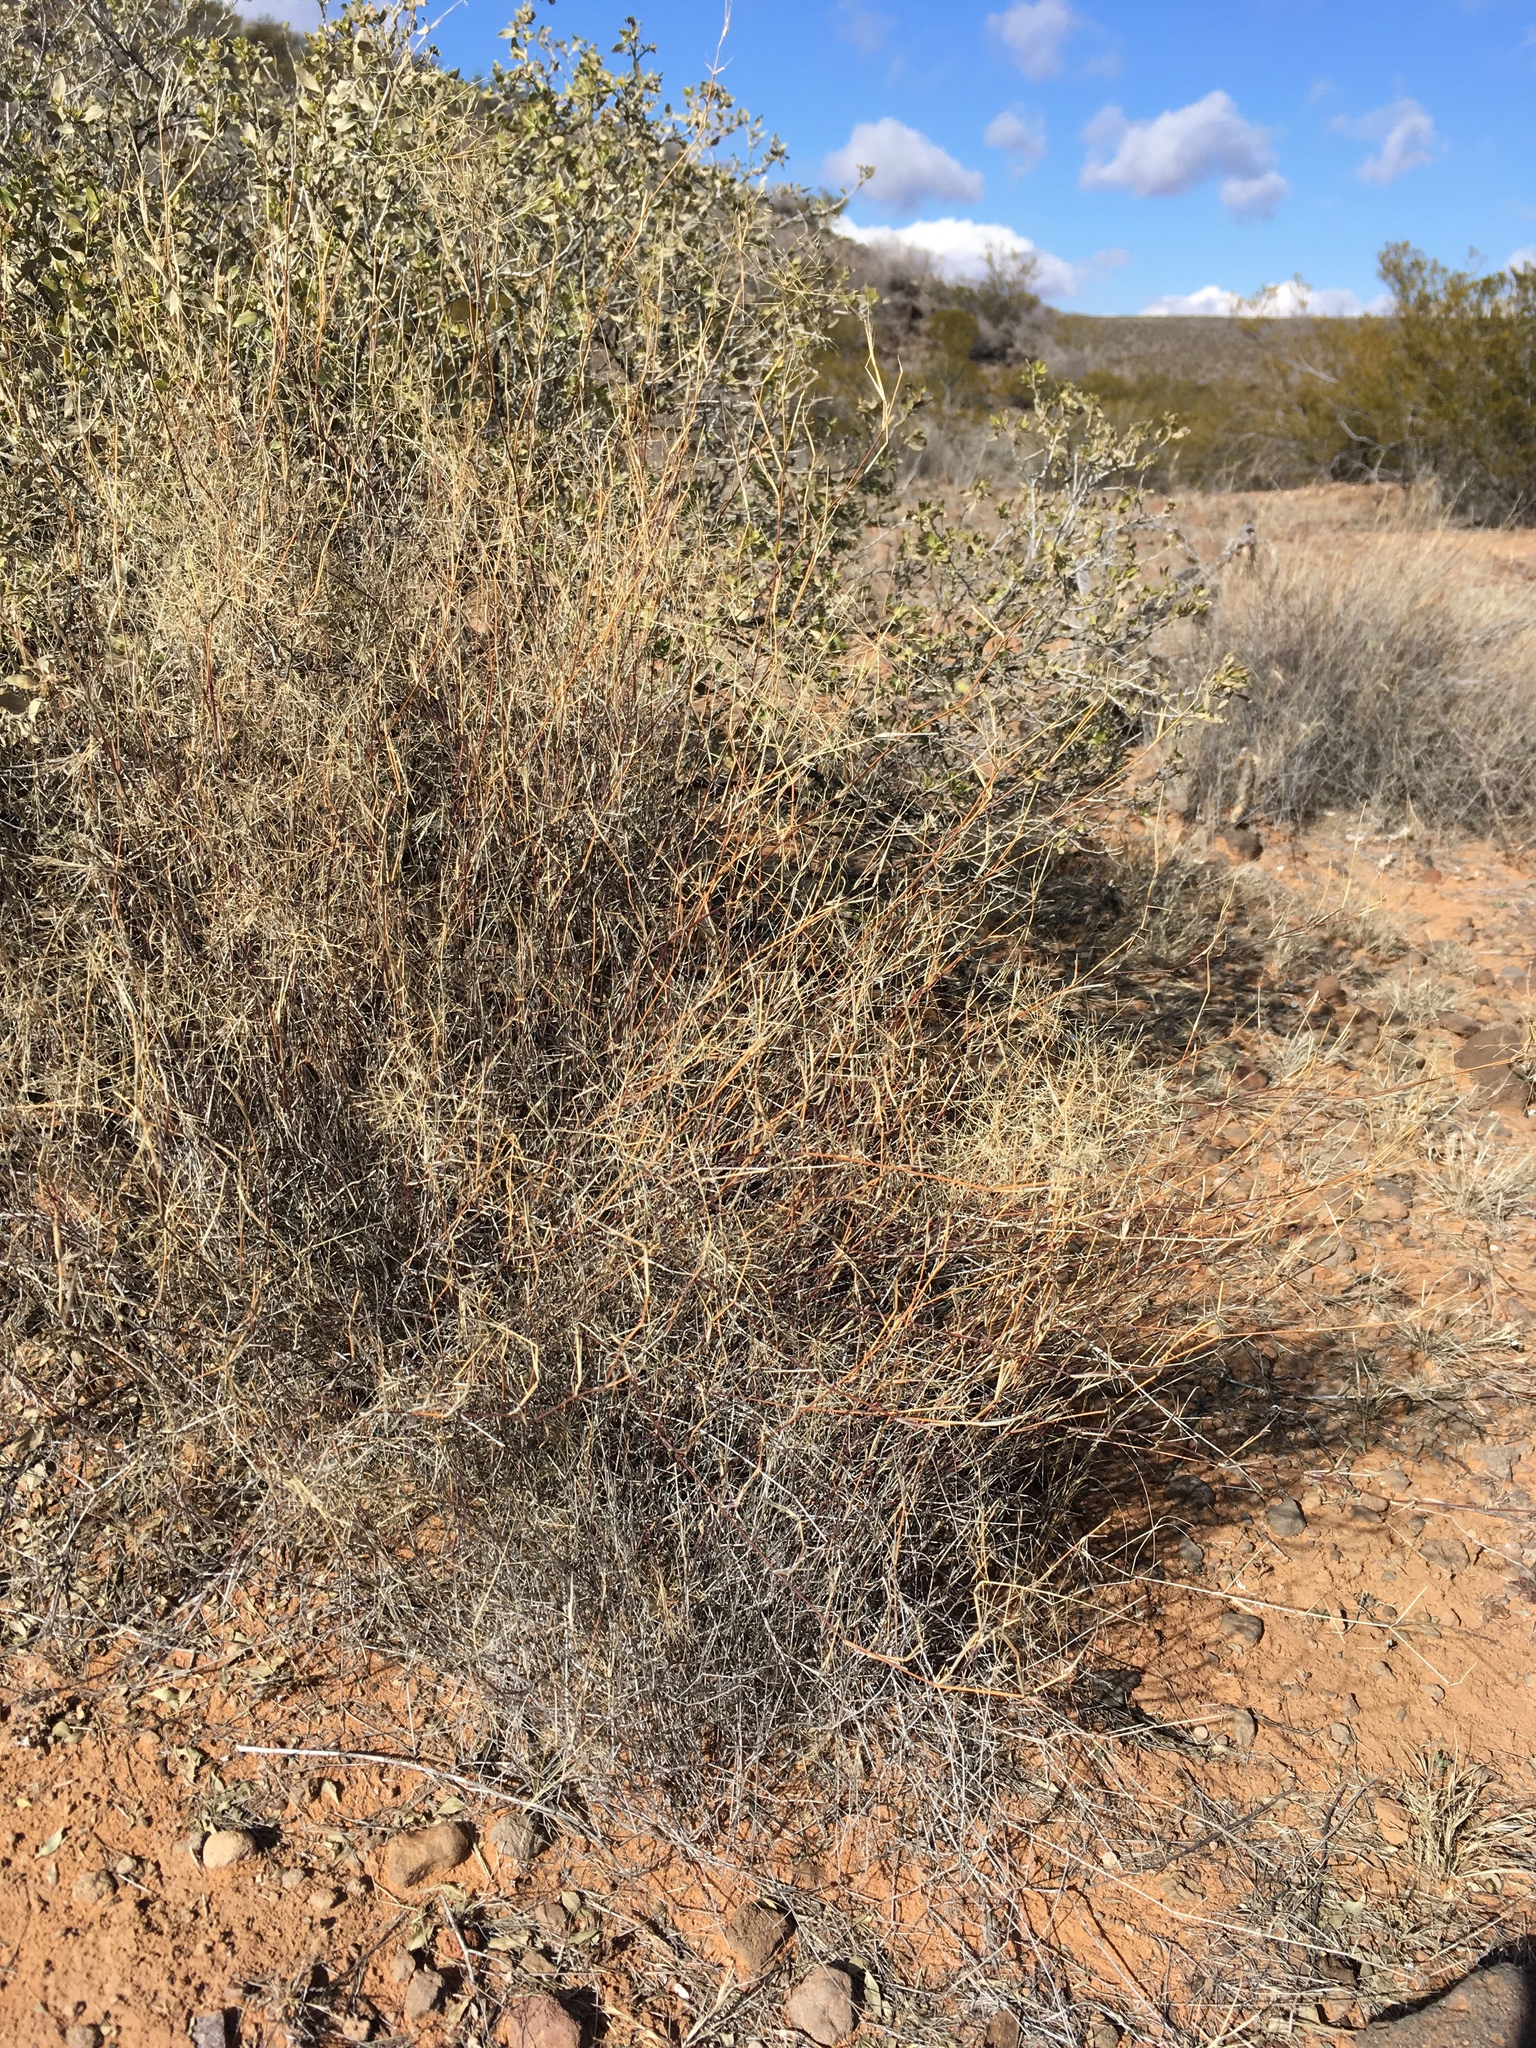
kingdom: Plantae
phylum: Tracheophyta
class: Liliopsida
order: Poales
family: Poaceae
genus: Muhlenbergia
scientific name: Muhlenbergia porteri
